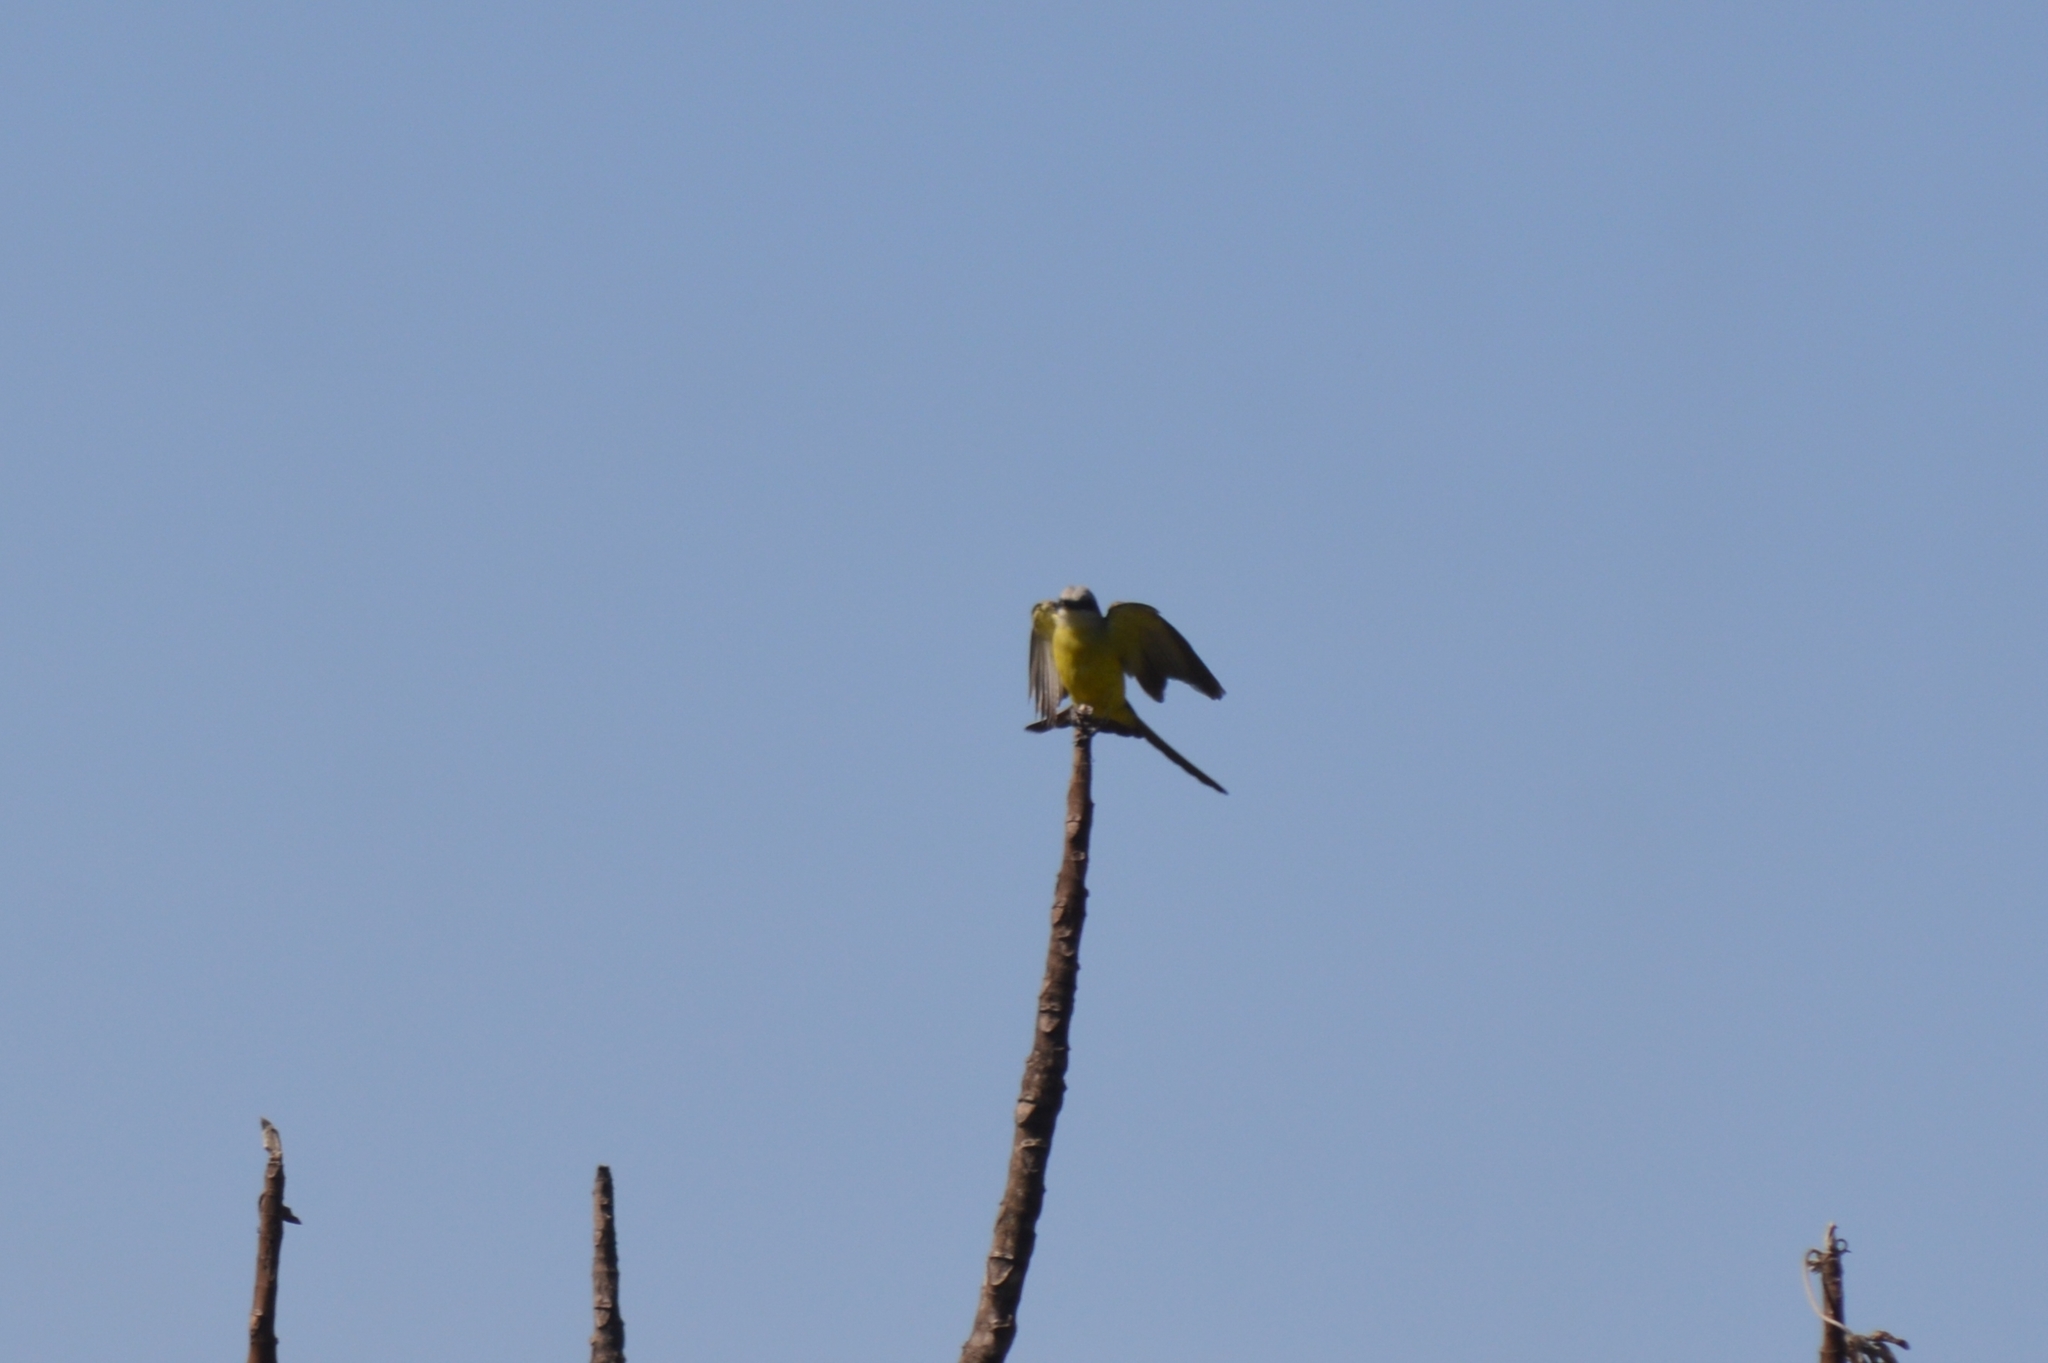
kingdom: Animalia
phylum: Chordata
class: Aves
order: Passeriformes
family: Tyrannidae
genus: Tyrannus
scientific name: Tyrannus melancholicus
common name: Tropical kingbird
